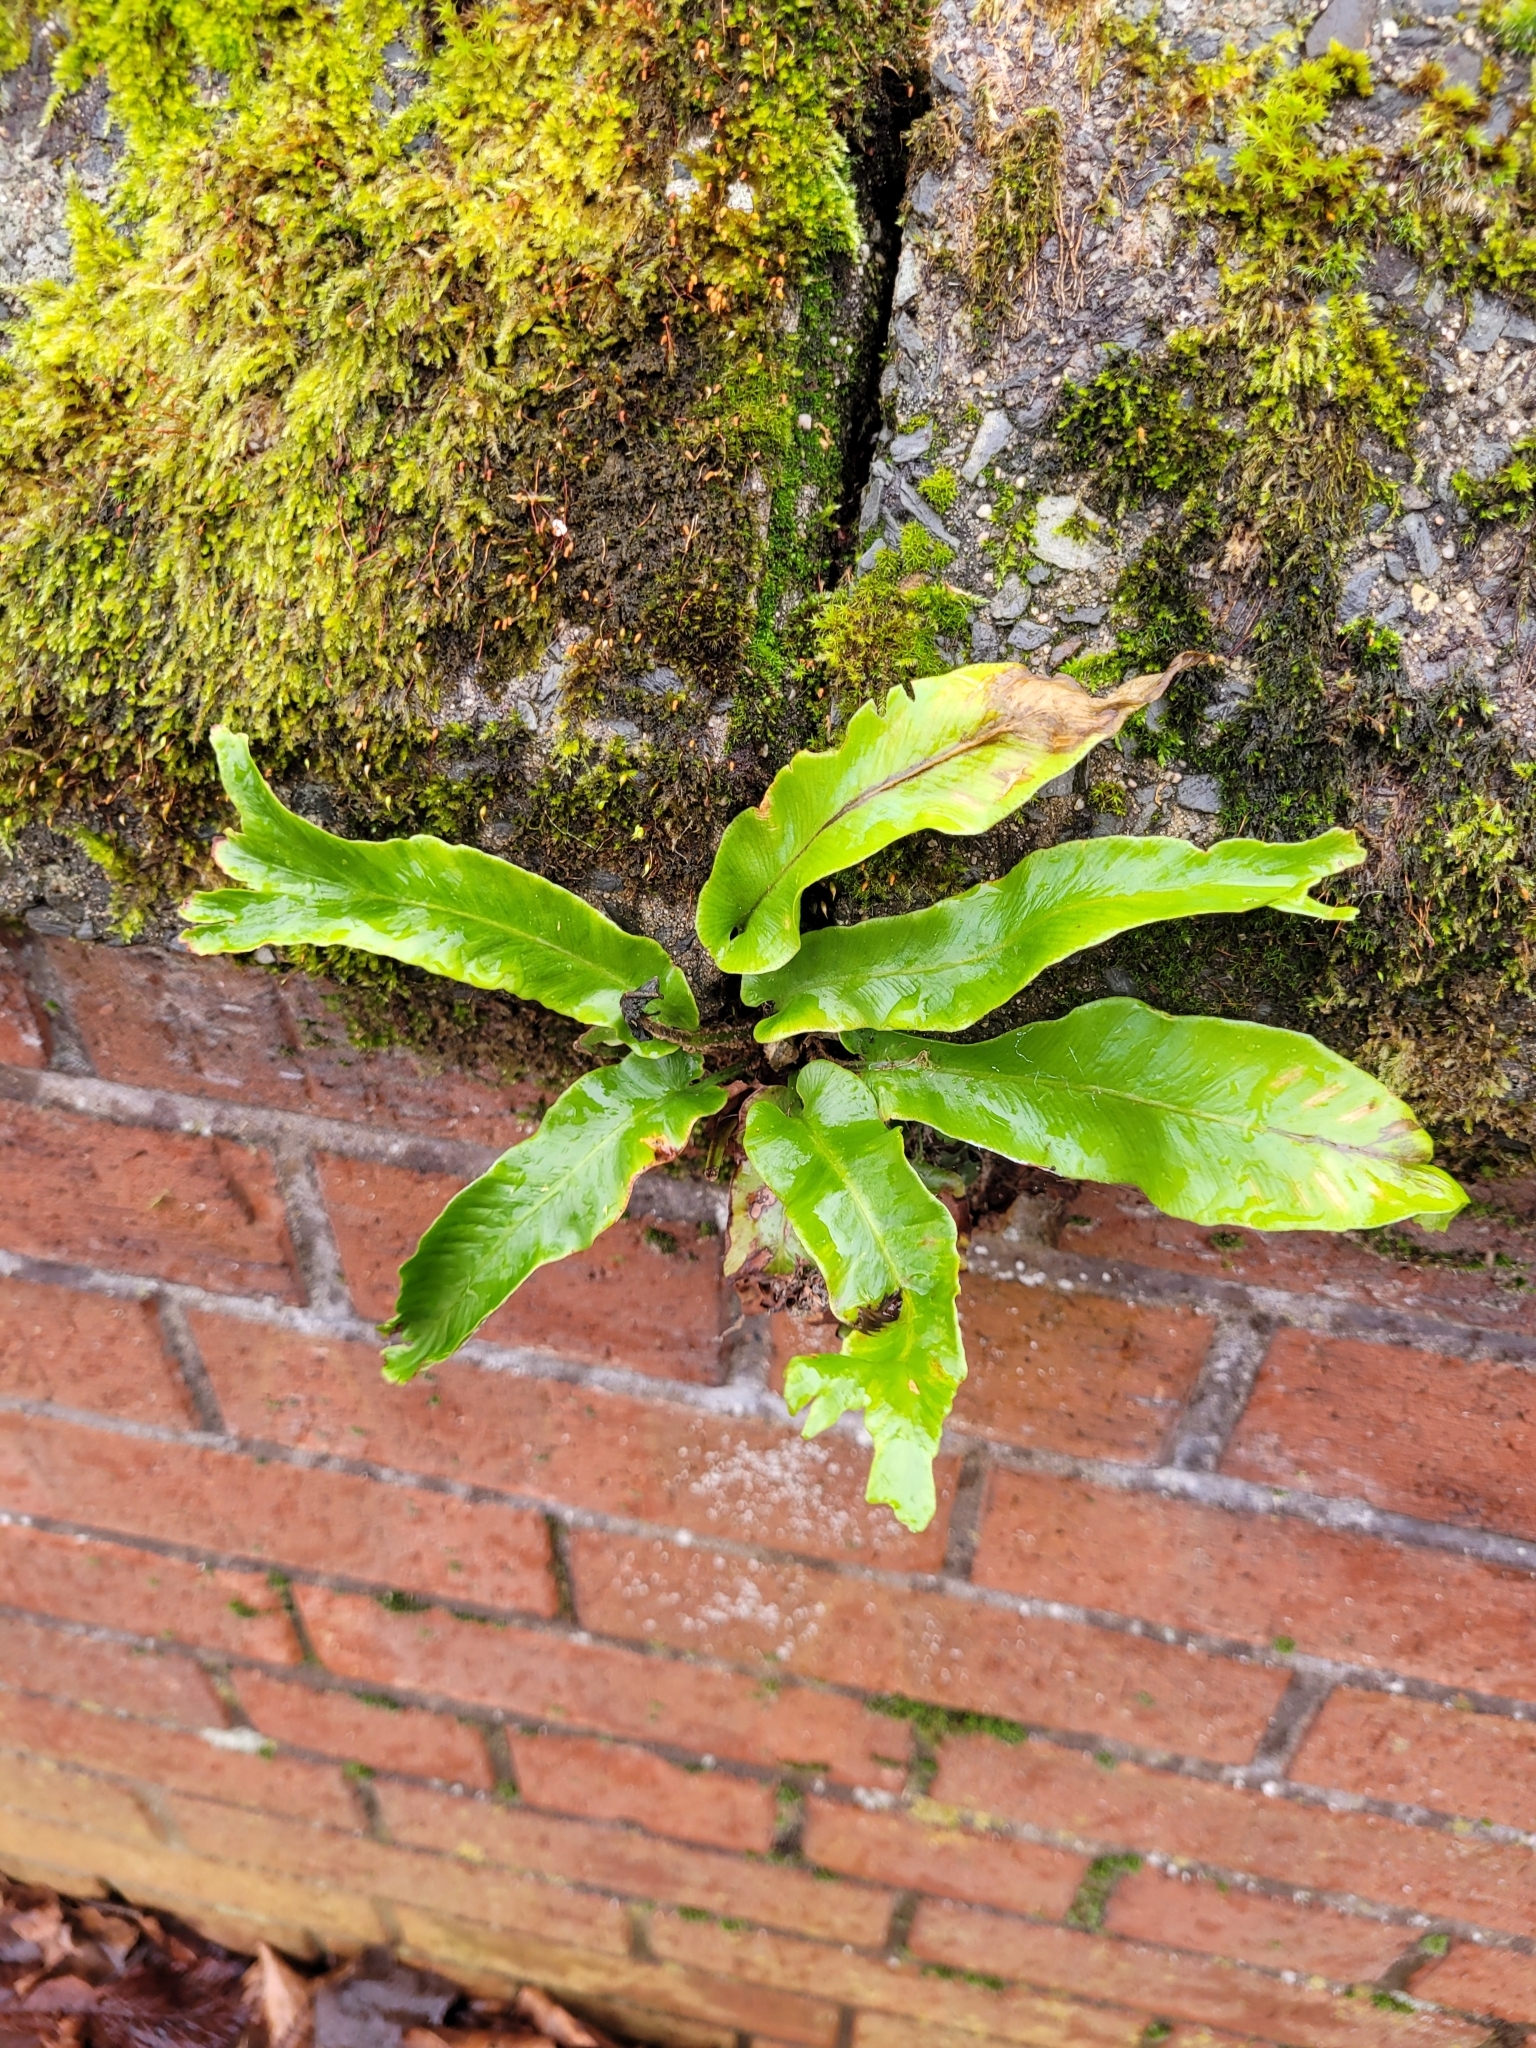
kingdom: Plantae
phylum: Tracheophyta
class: Polypodiopsida
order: Polypodiales
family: Aspleniaceae
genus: Asplenium
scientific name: Asplenium scolopendrium
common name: Hart's-tongue fern
